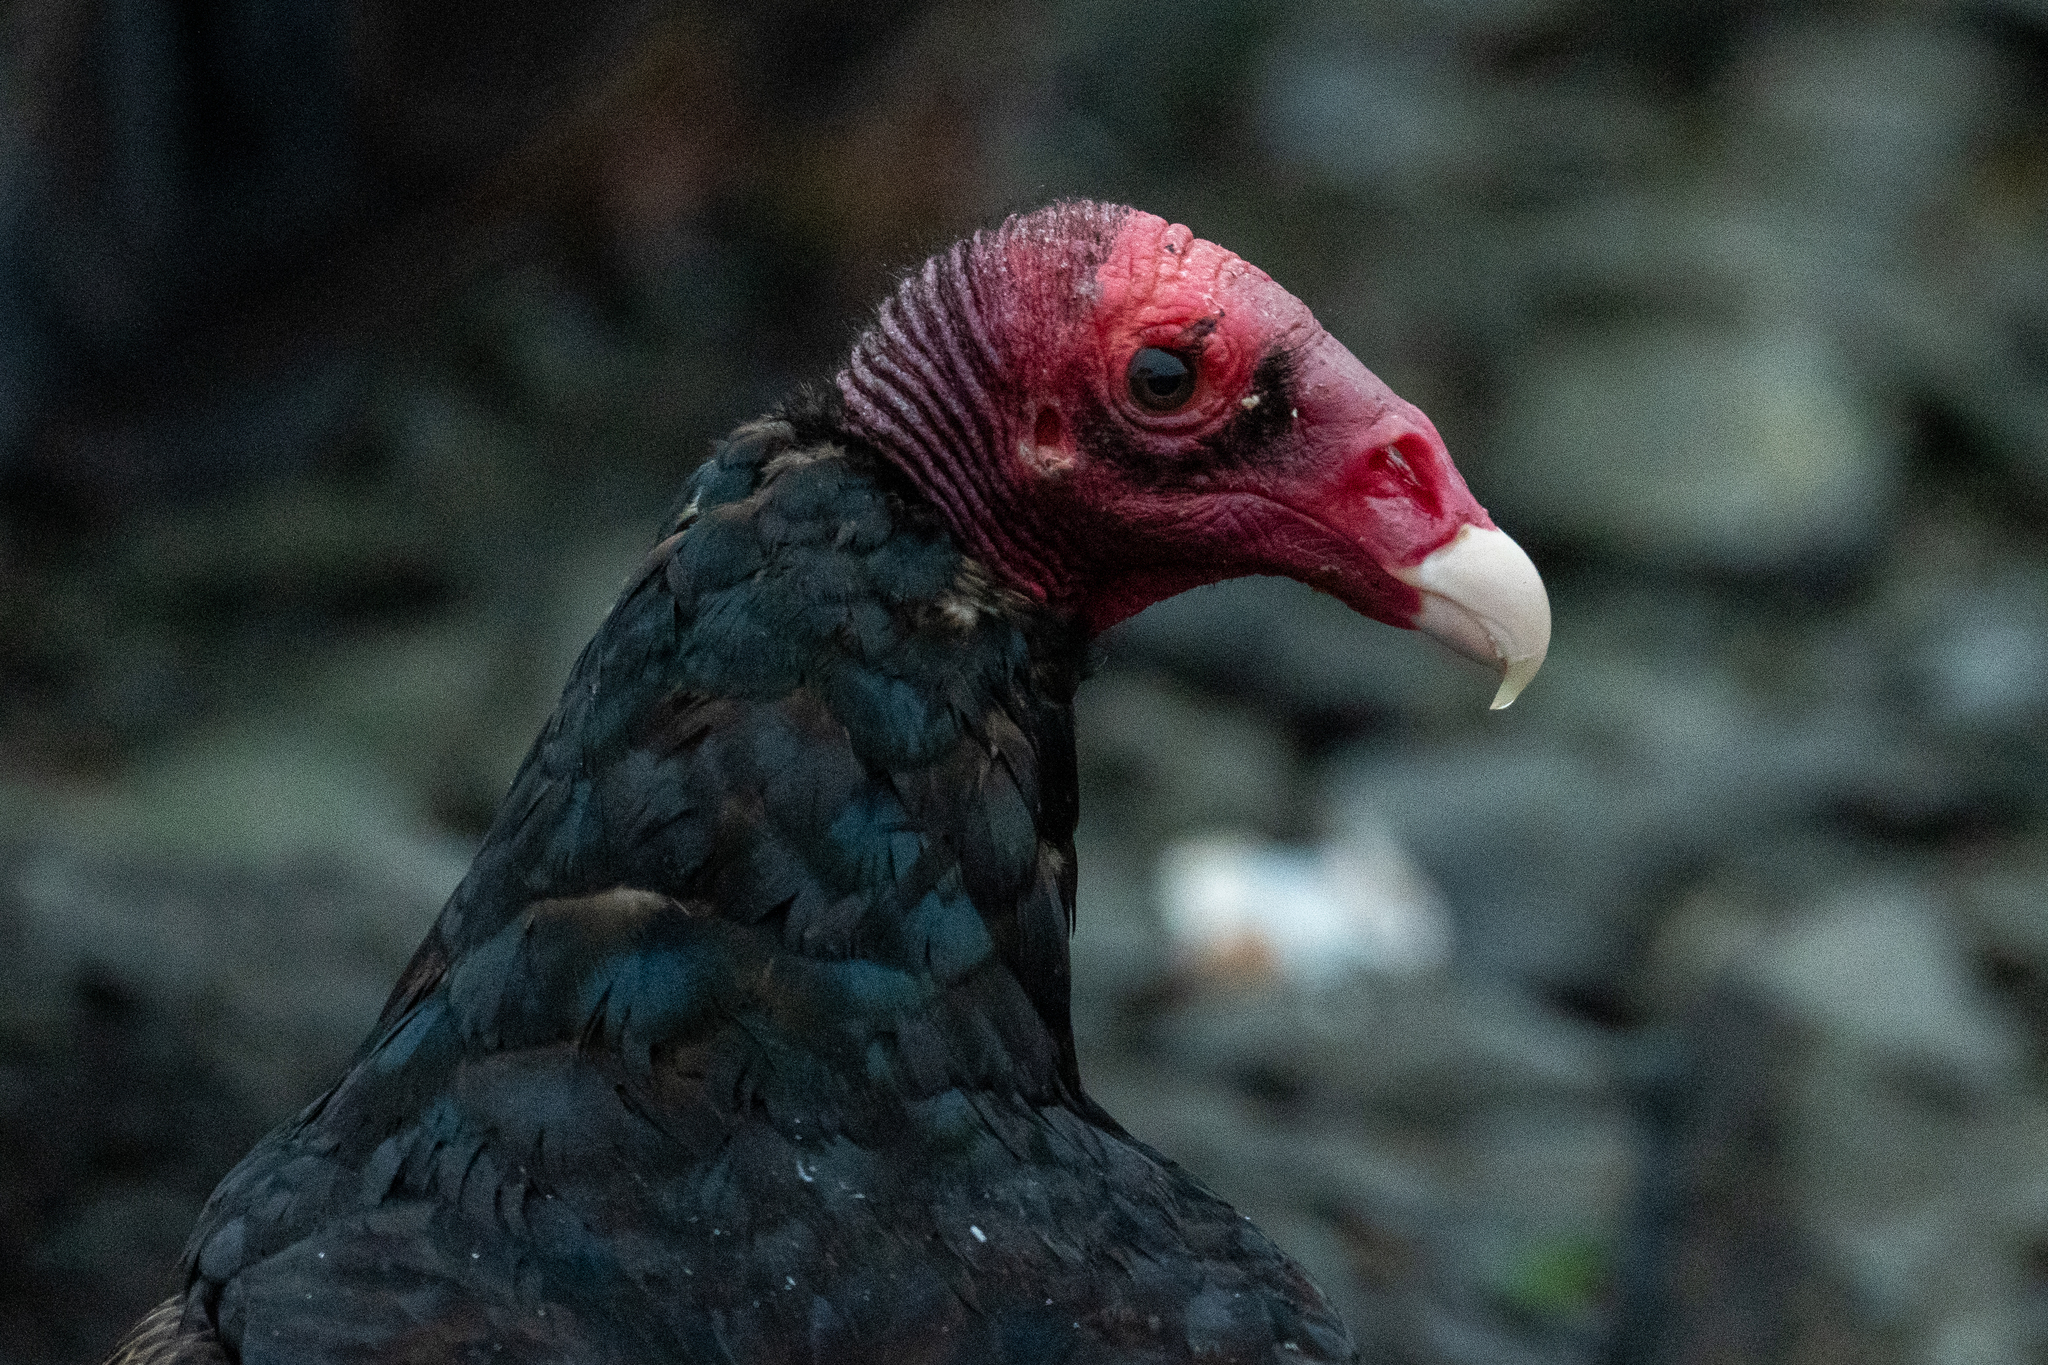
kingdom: Animalia
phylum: Chordata
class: Aves
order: Accipitriformes
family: Cathartidae
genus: Cathartes
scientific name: Cathartes aura
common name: Turkey vulture
